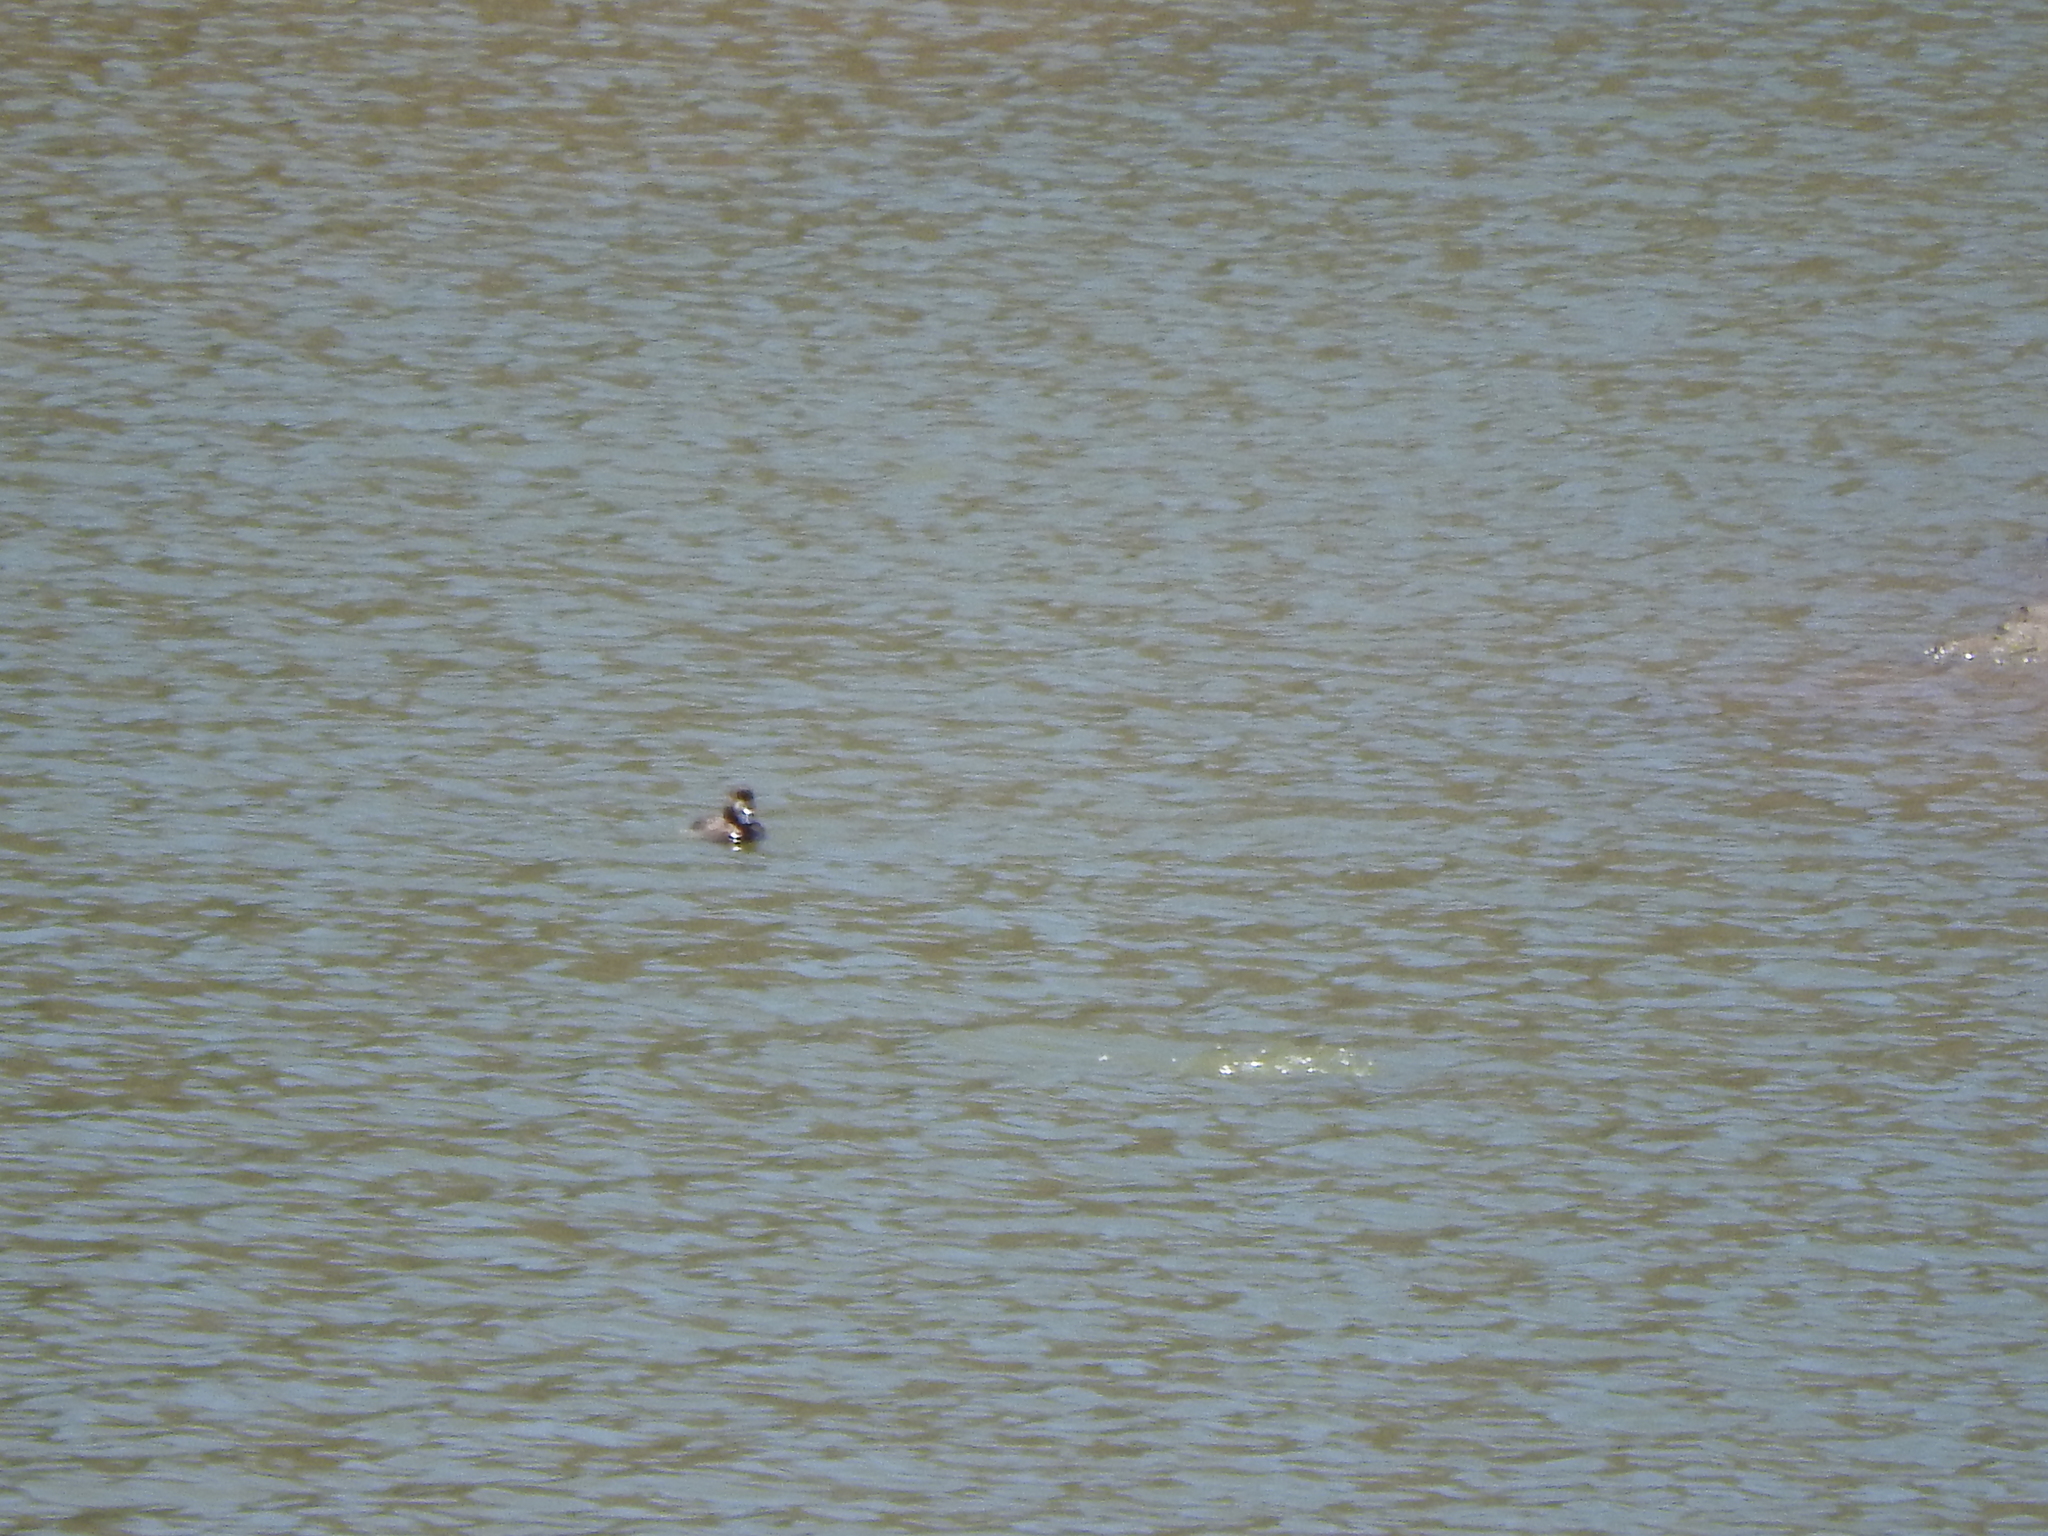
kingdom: Animalia
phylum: Chordata
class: Aves
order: Anseriformes
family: Anatidae
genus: Oxyura
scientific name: Oxyura jamaicensis
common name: Ruddy duck
